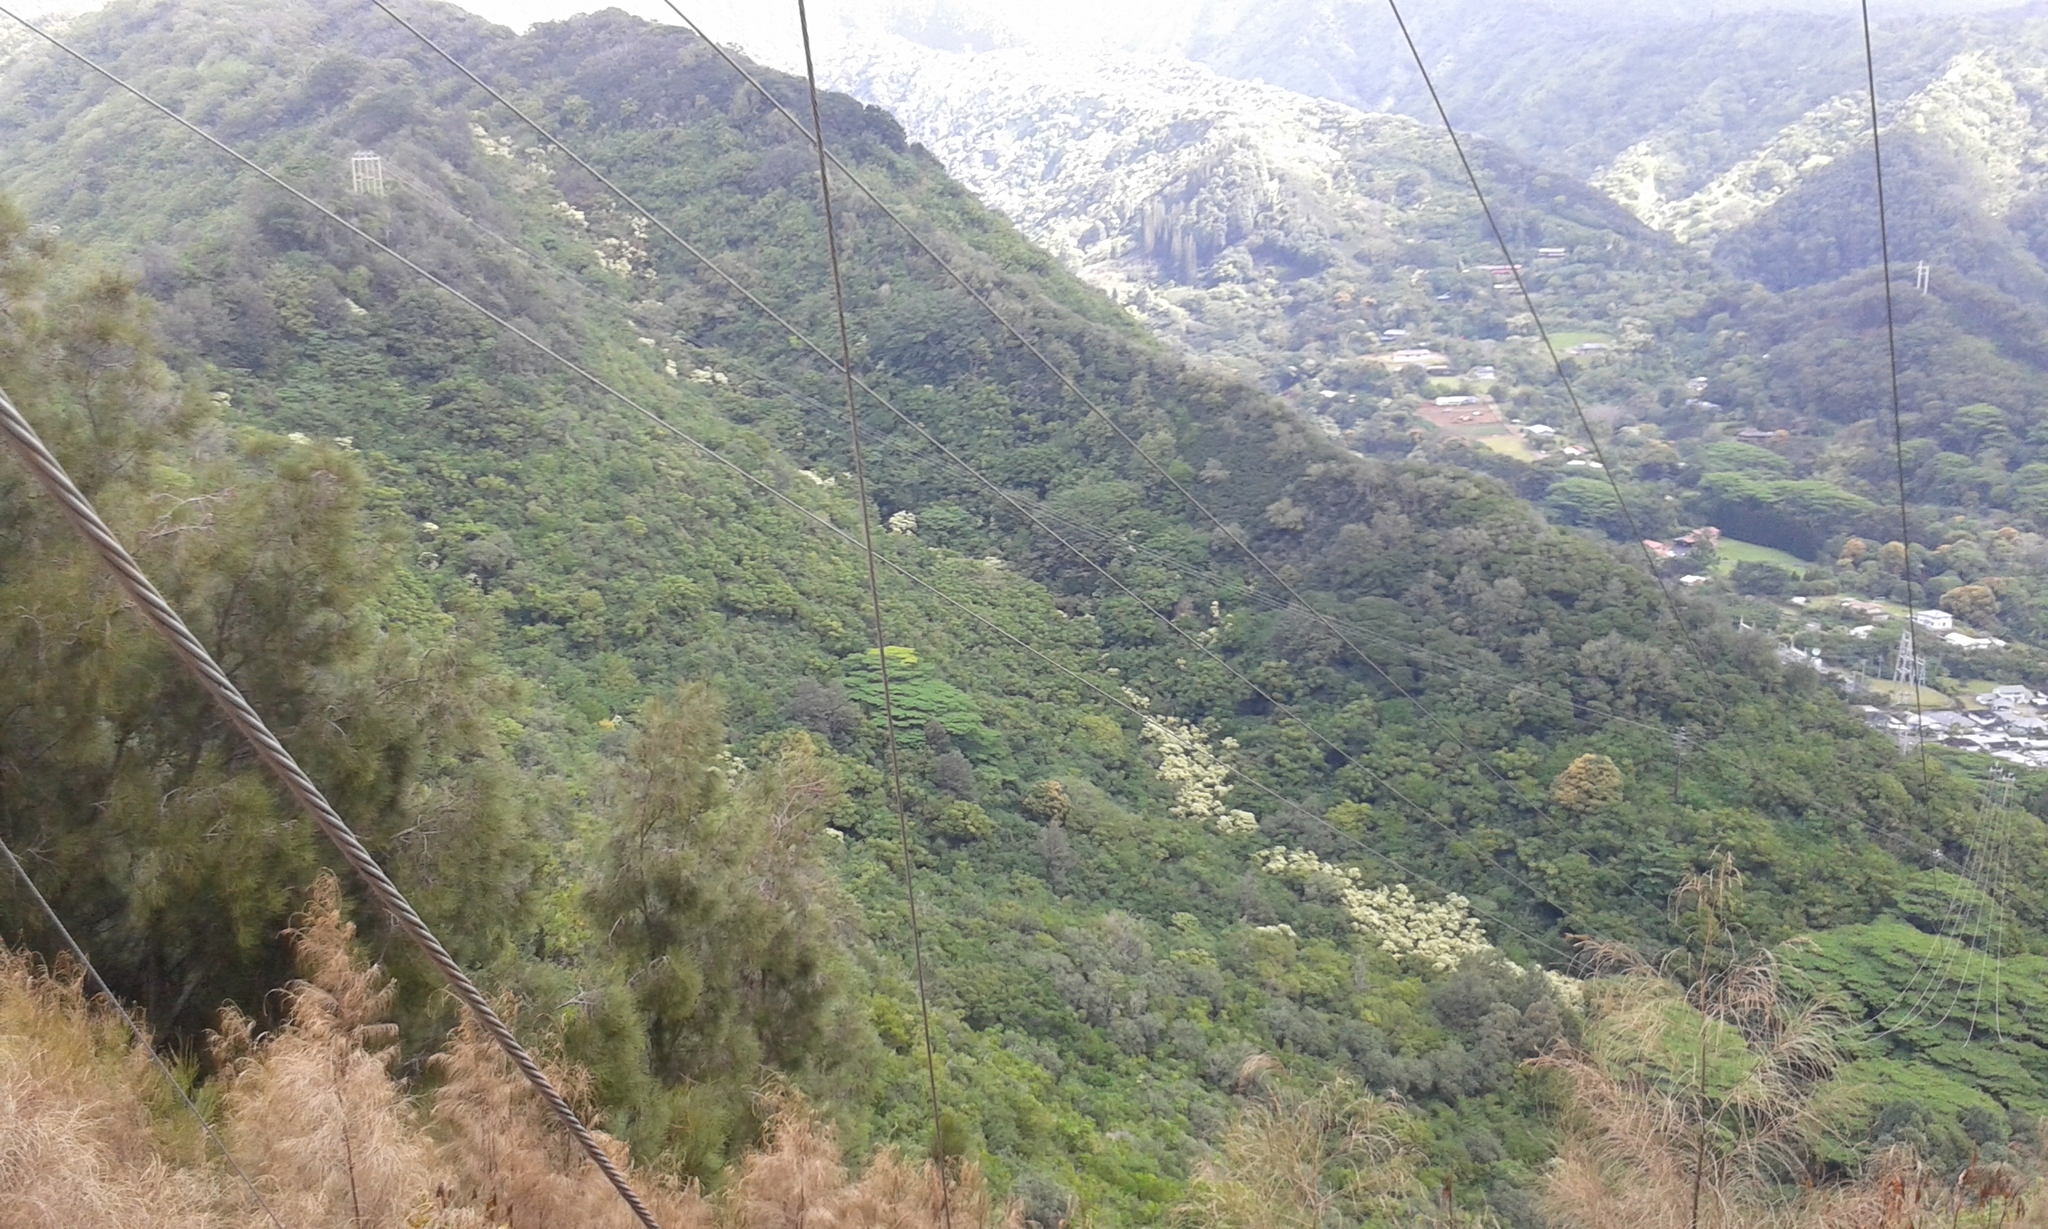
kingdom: Plantae
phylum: Tracheophyta
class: Magnoliopsida
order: Malpighiales
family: Euphorbiaceae
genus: Aleurites
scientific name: Aleurites moluccanus
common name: Candlenut tree
